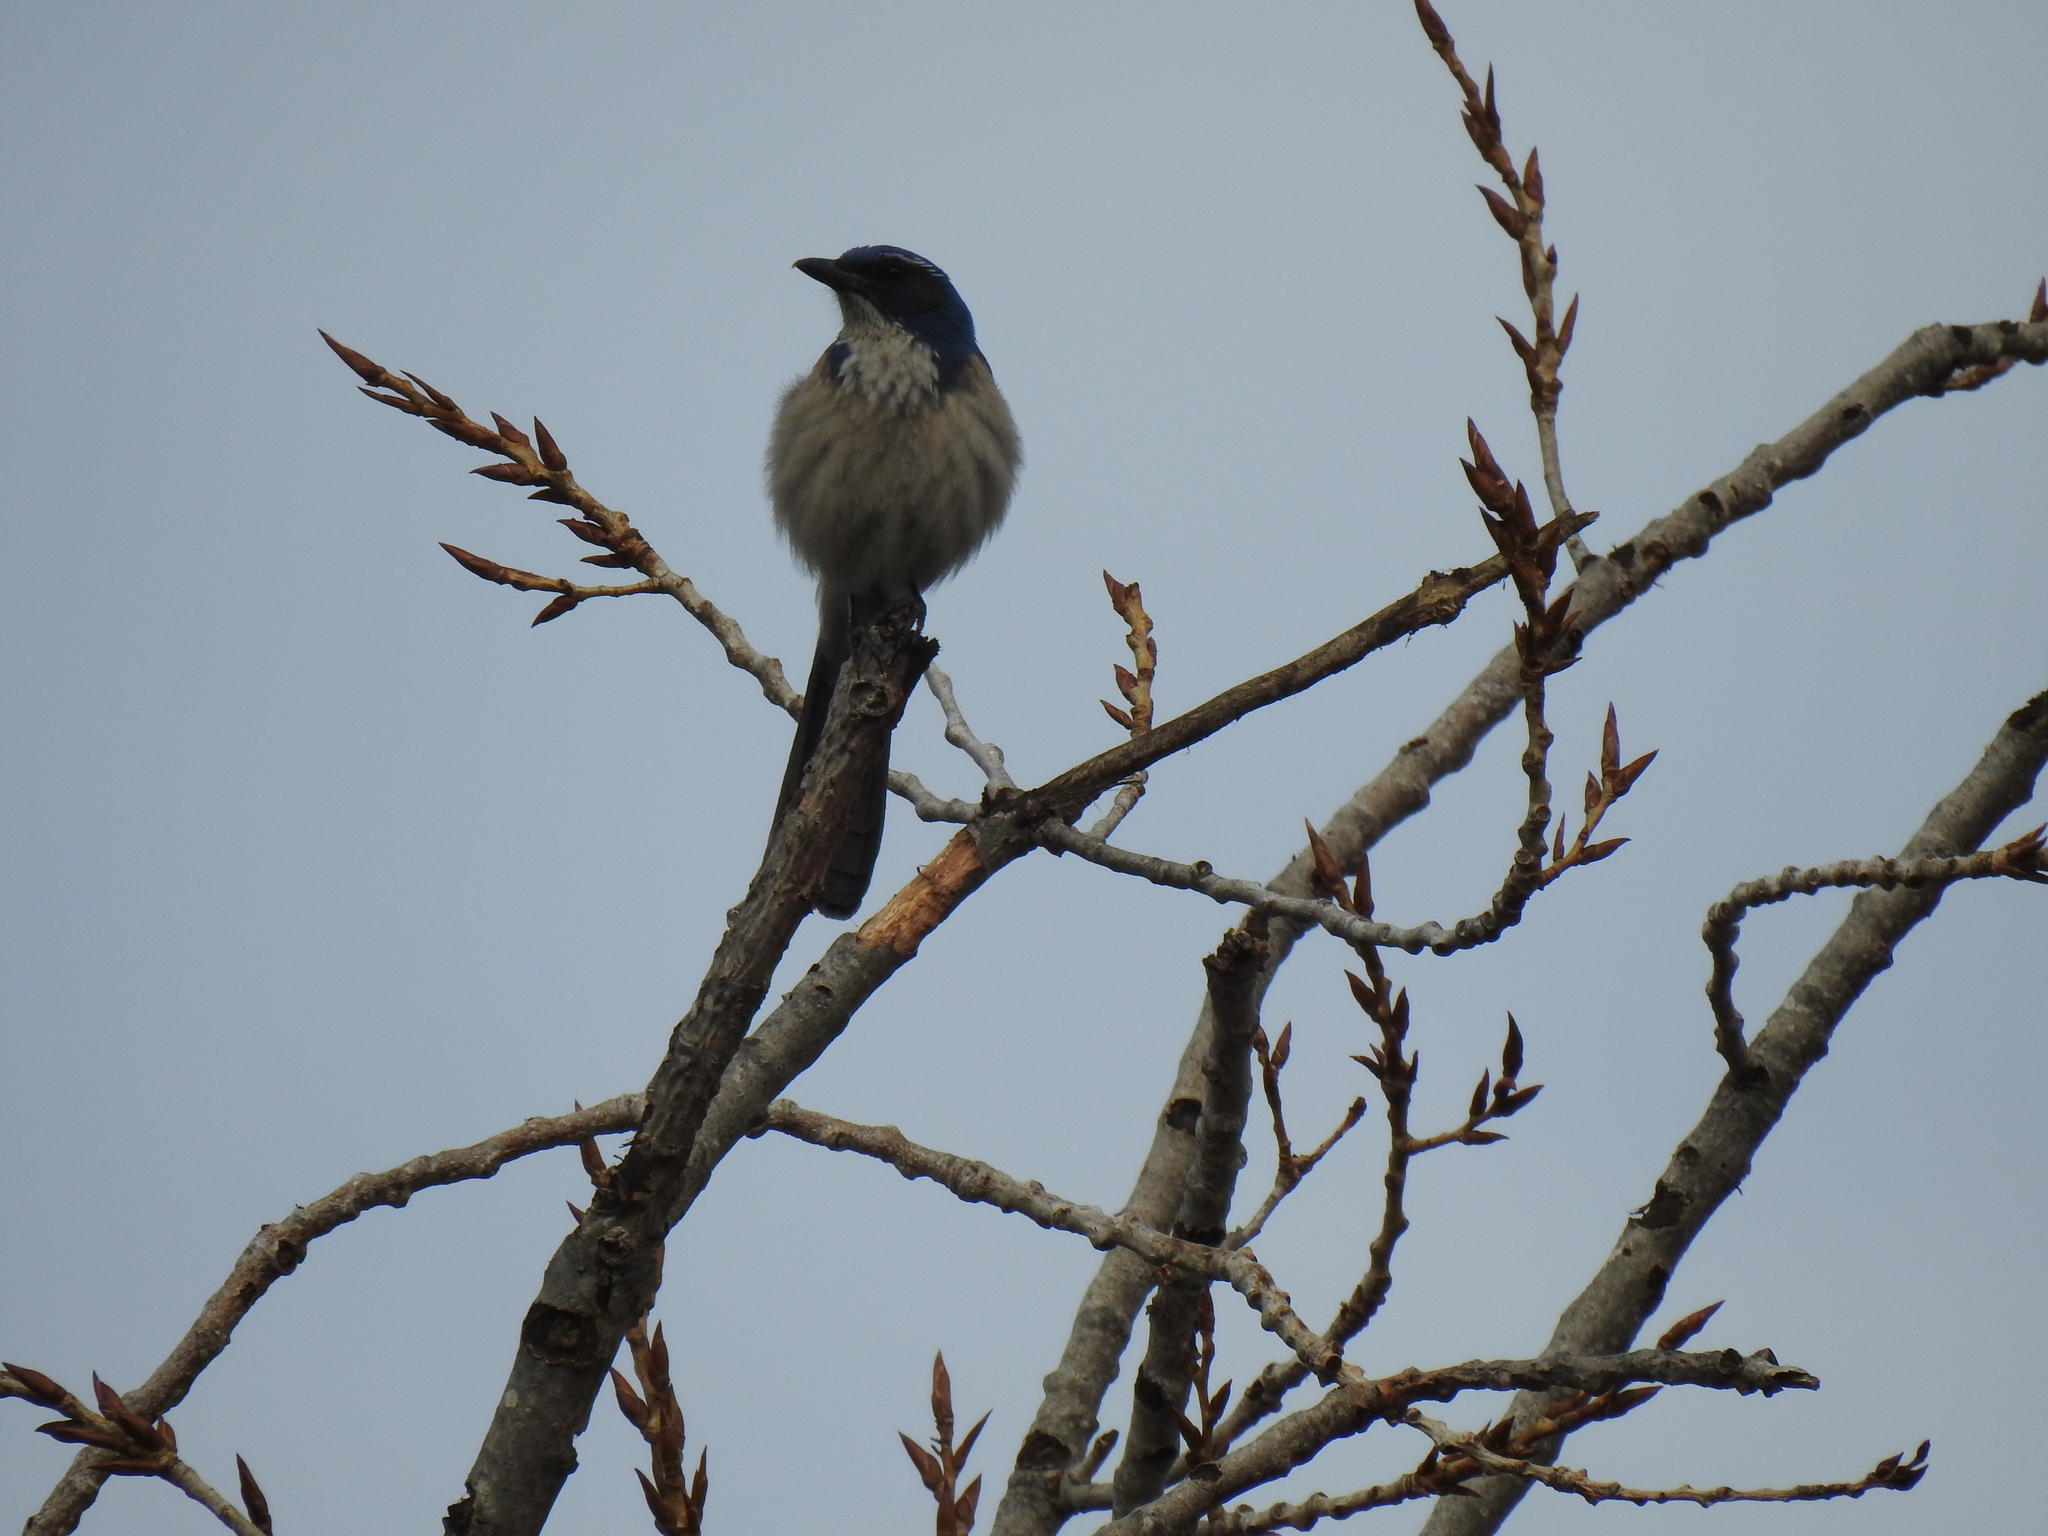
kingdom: Animalia
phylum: Chordata
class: Aves
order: Passeriformes
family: Corvidae
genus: Aphelocoma
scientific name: Aphelocoma californica
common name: California scrub-jay
